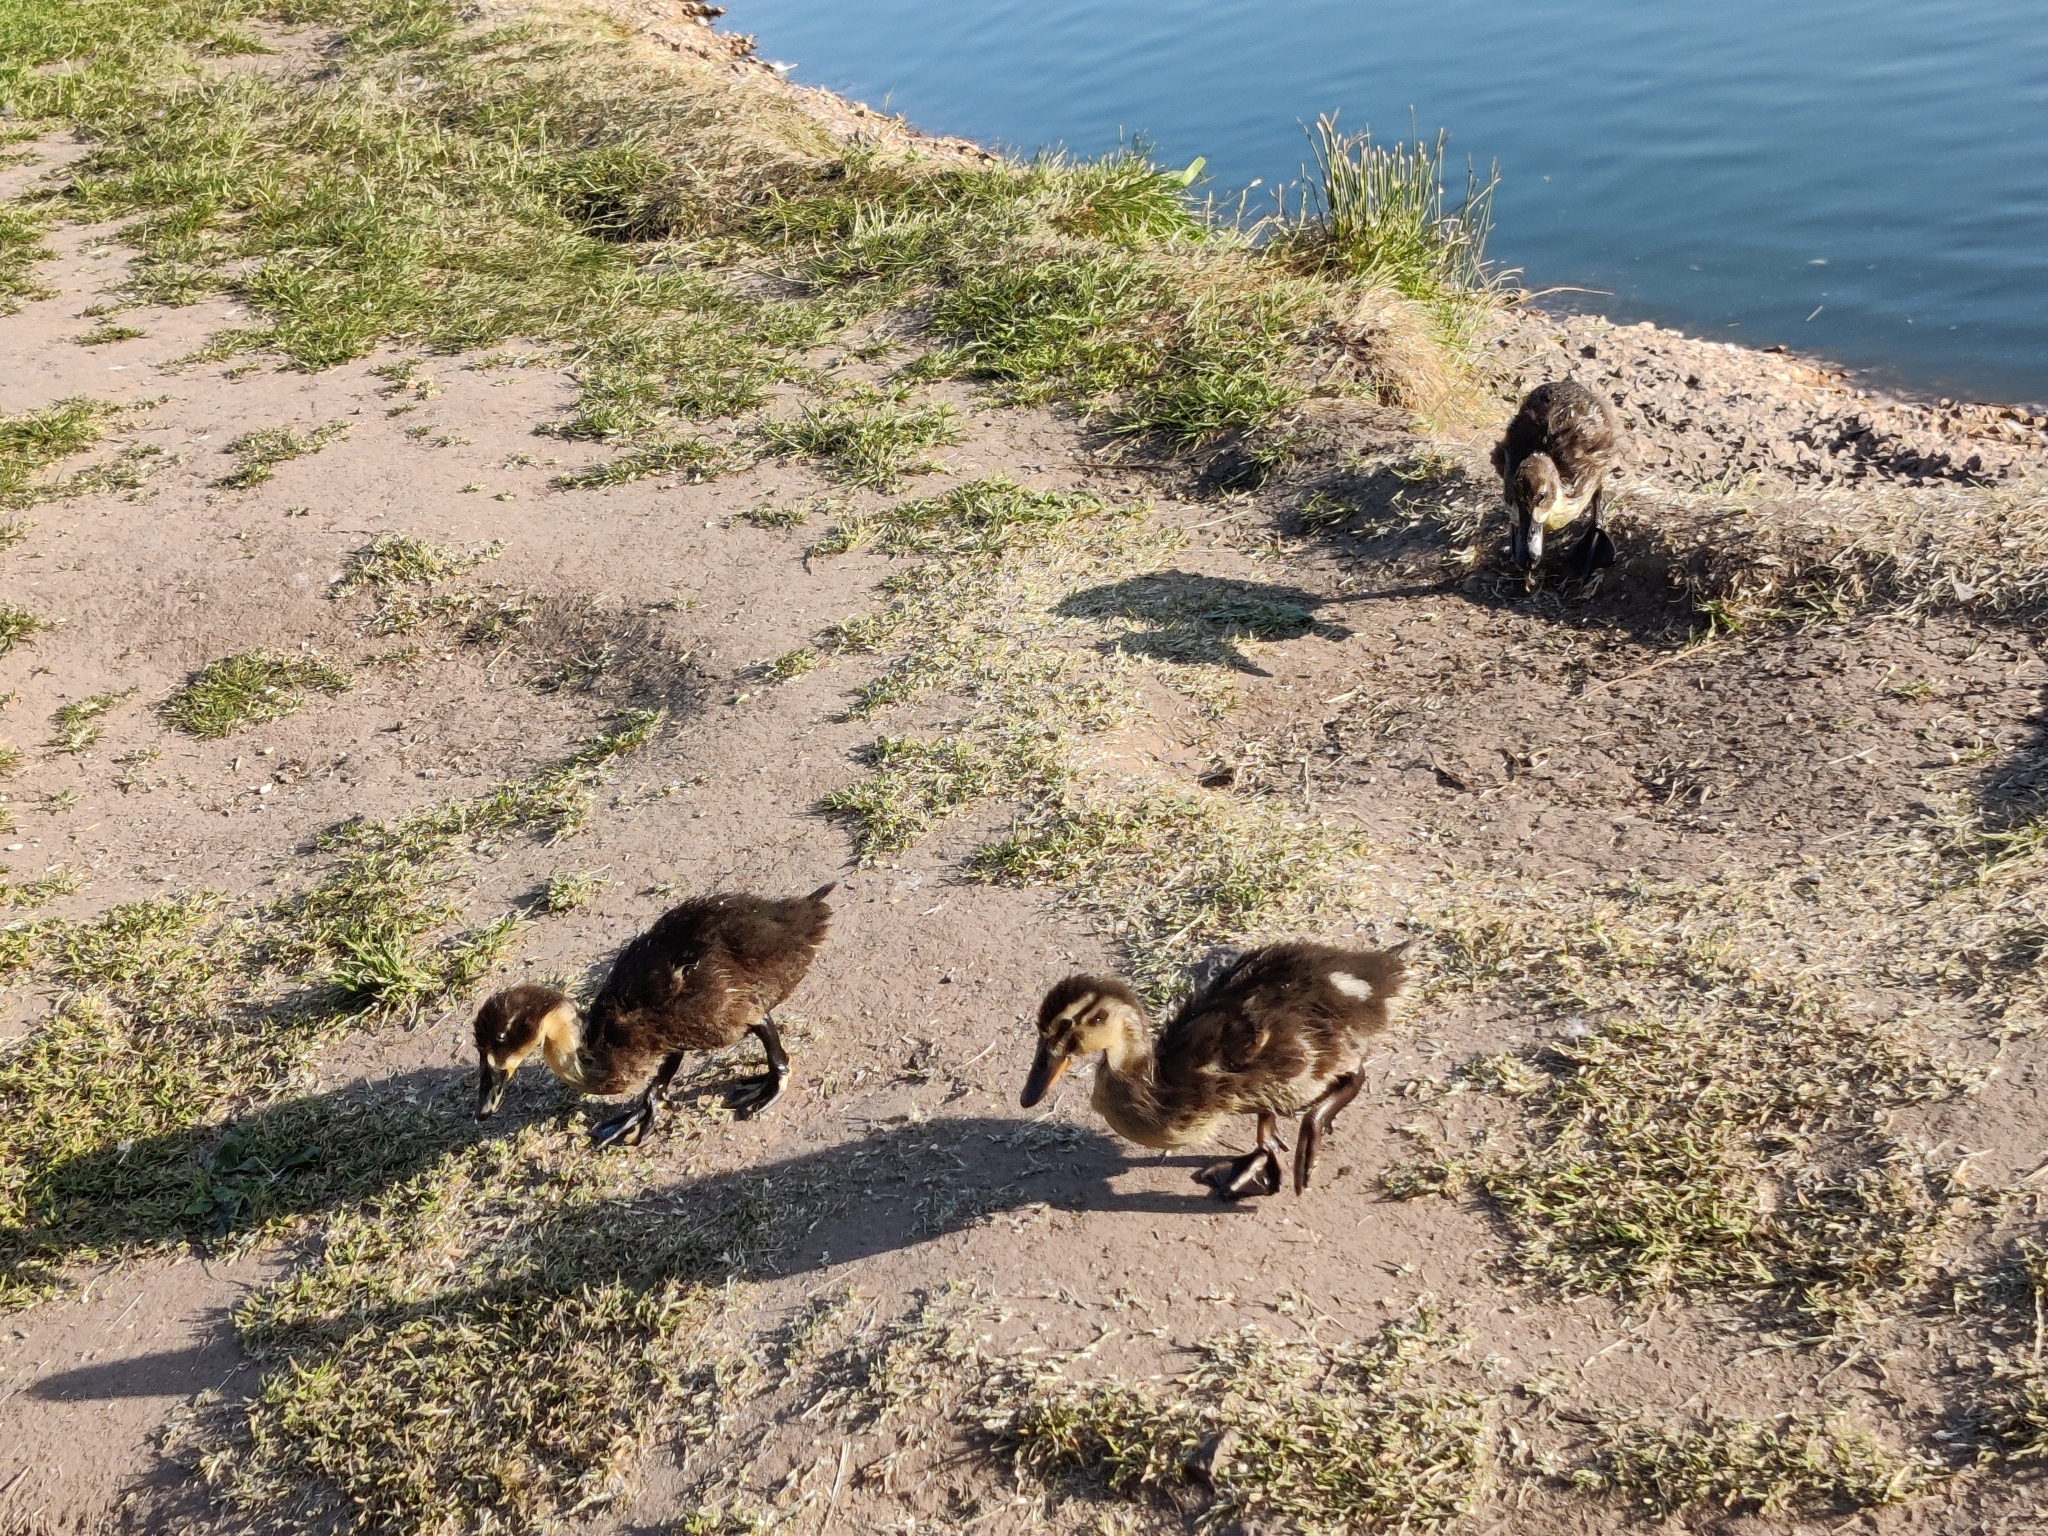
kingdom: Animalia
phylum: Chordata
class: Aves
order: Anseriformes
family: Anatidae
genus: Anas
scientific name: Anas platyrhynchos
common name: Mallard
